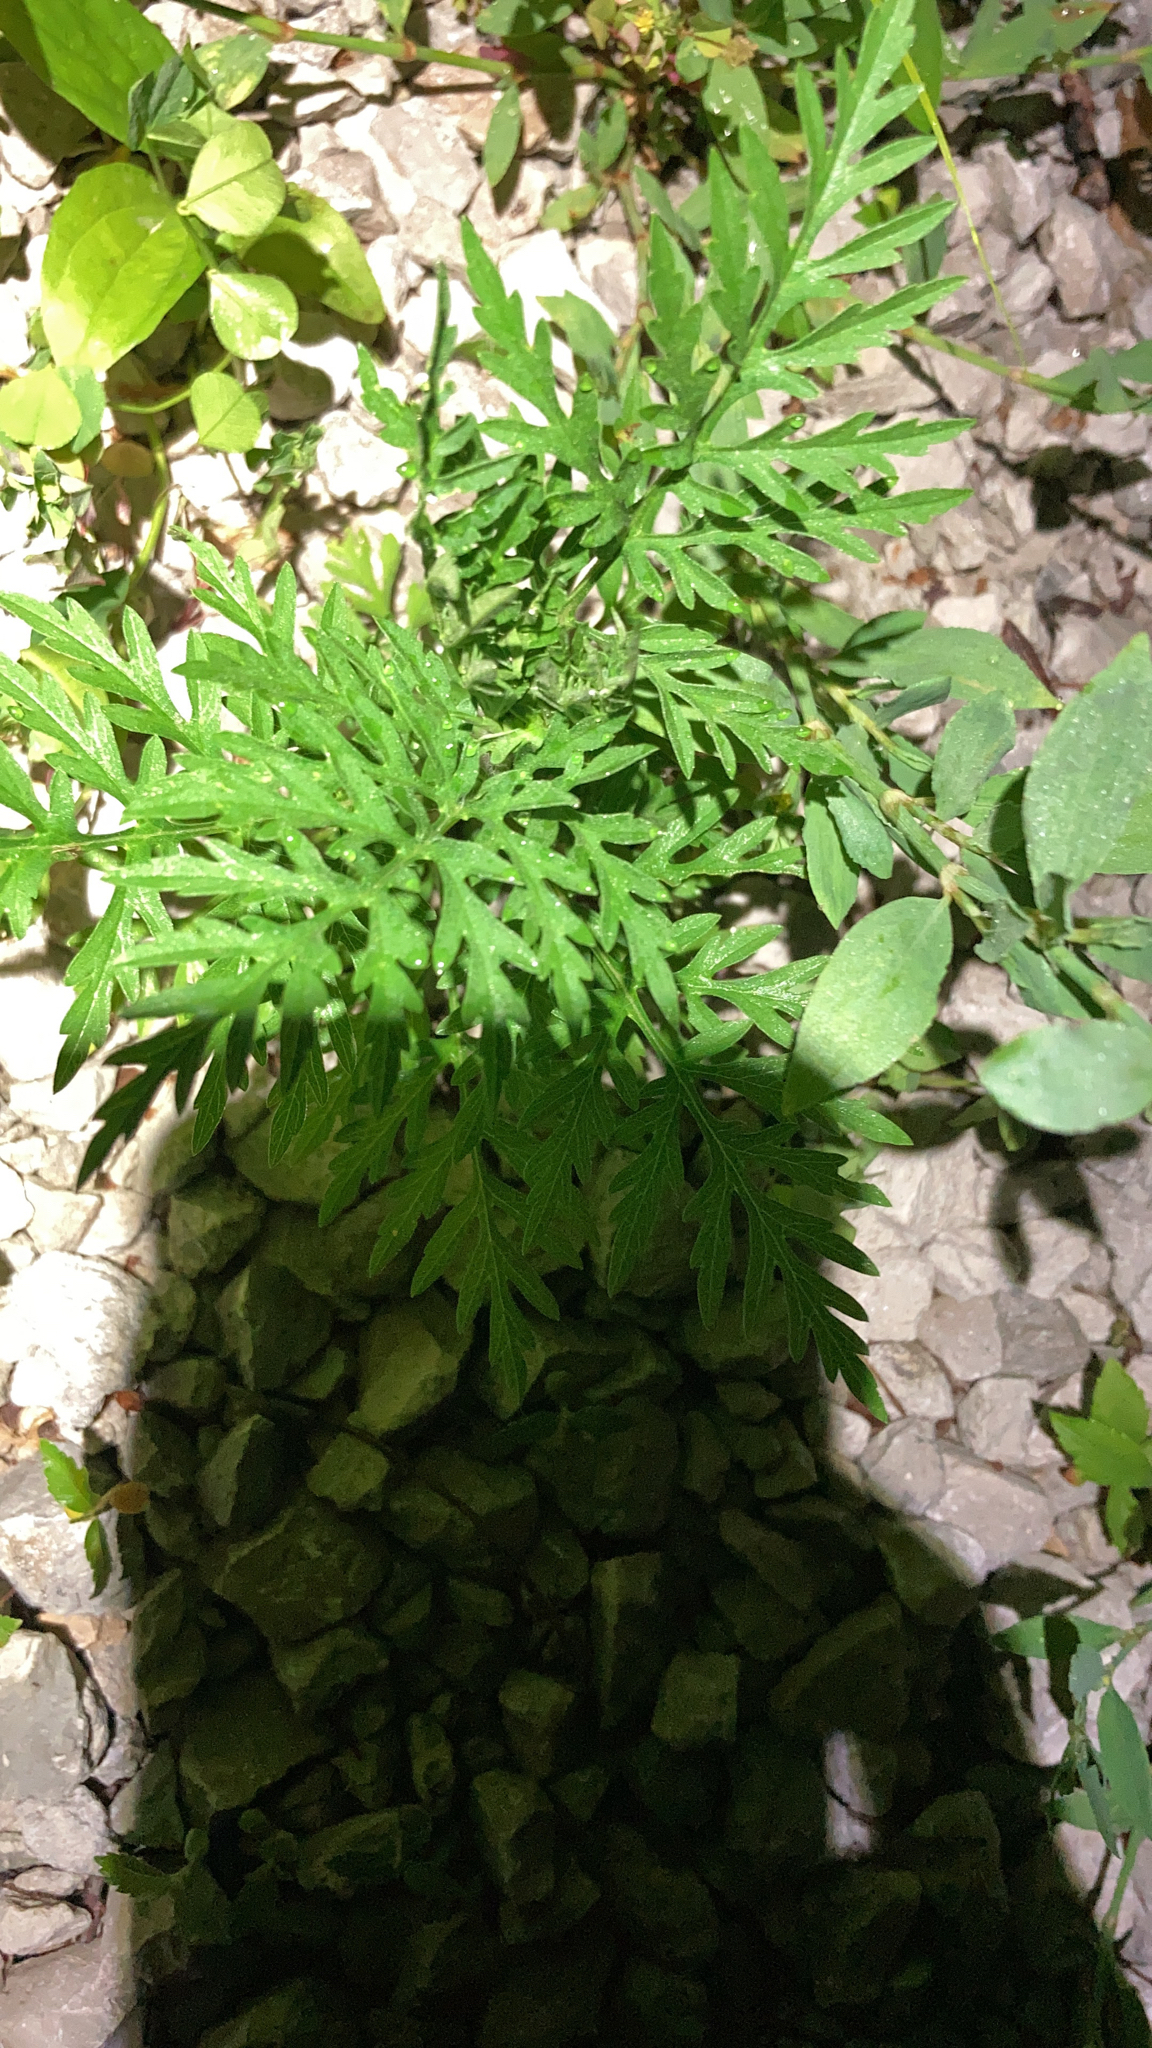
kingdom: Plantae
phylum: Tracheophyta
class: Magnoliopsida
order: Asterales
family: Asteraceae
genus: Ambrosia
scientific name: Ambrosia artemisiifolia
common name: Annual ragweed
